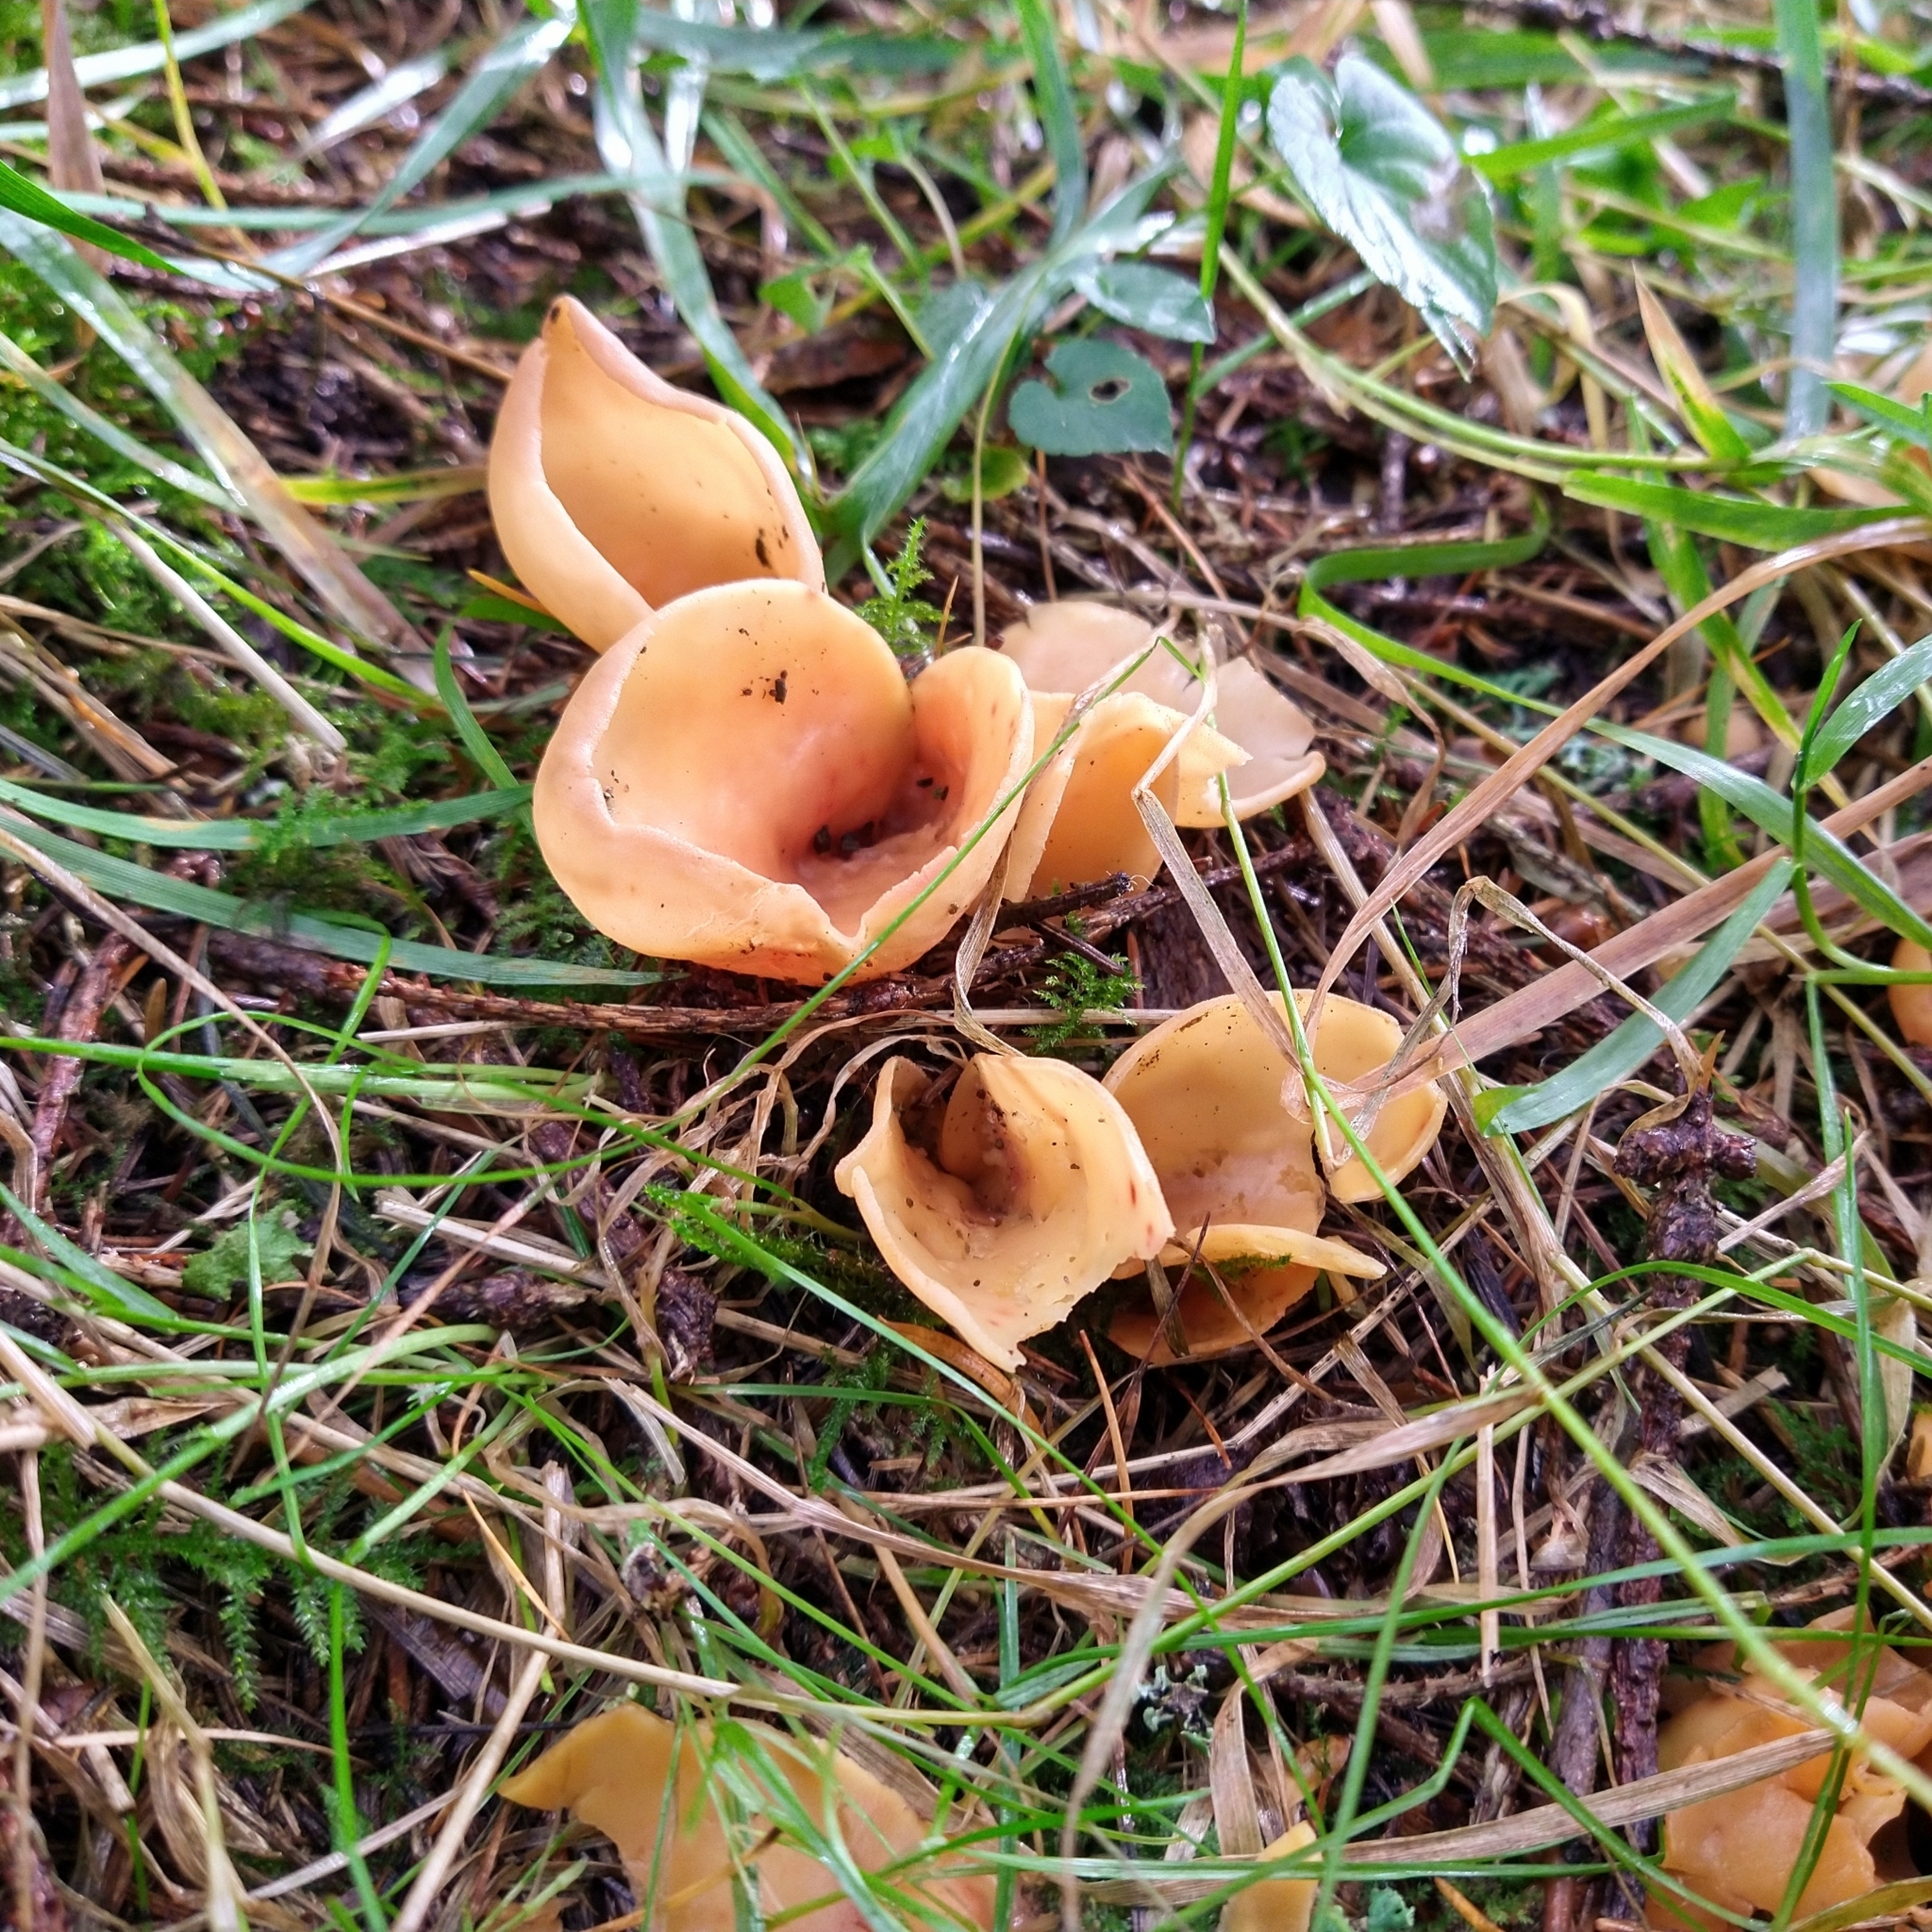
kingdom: Fungi
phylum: Ascomycota
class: Pezizomycetes
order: Pezizales
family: Pyronemataceae
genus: Aleuria
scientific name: Aleuria aurantia
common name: Orange peel fungus
